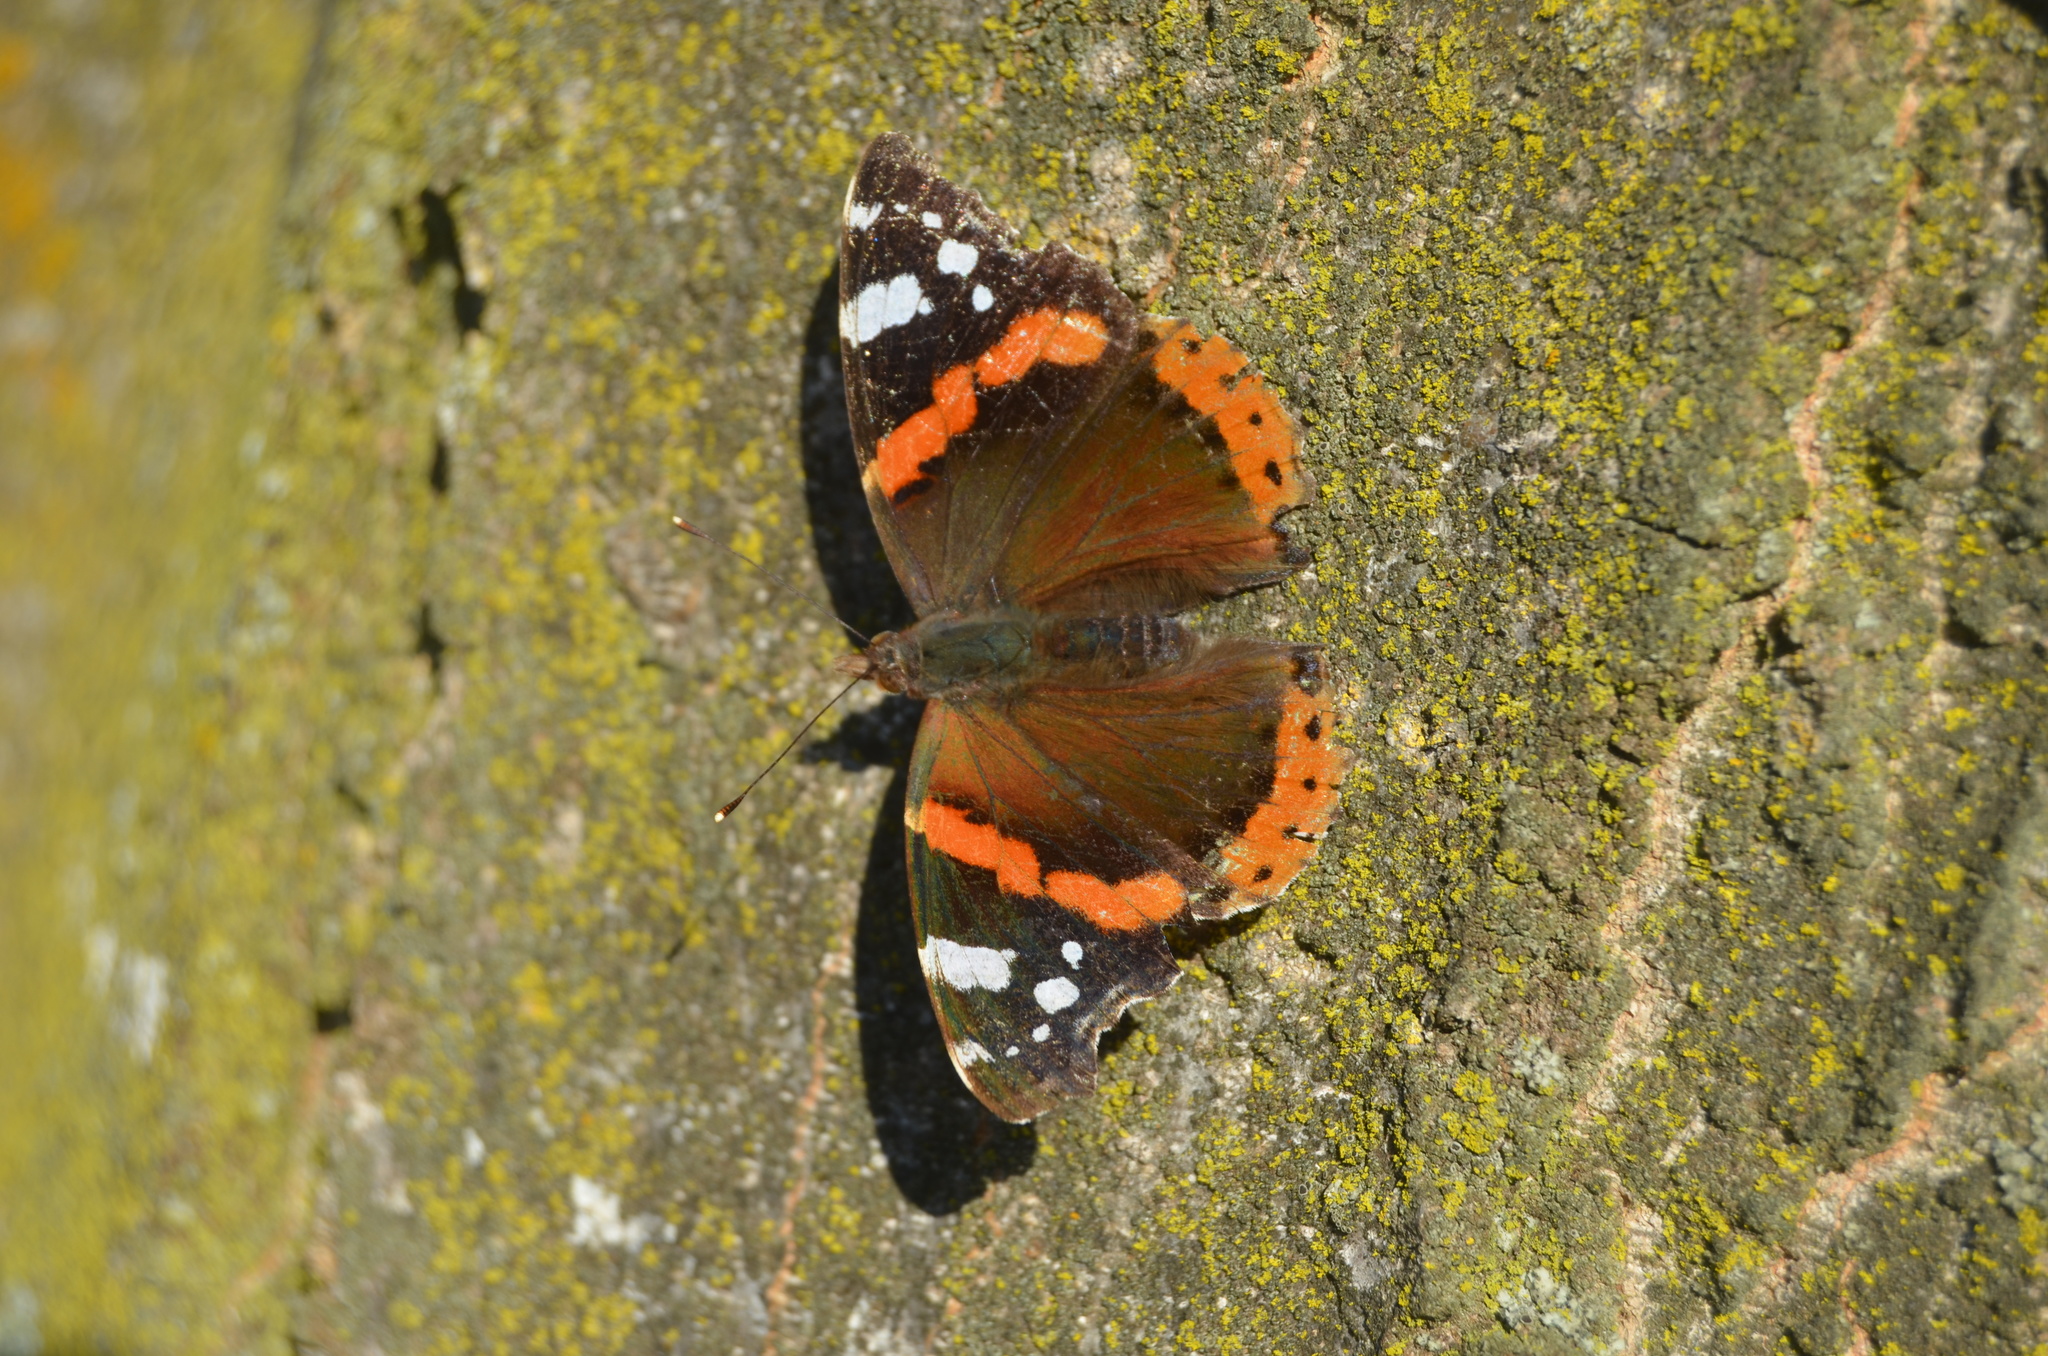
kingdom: Animalia
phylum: Arthropoda
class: Insecta
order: Lepidoptera
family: Nymphalidae
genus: Vanessa
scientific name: Vanessa atalanta
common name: Red admiral
